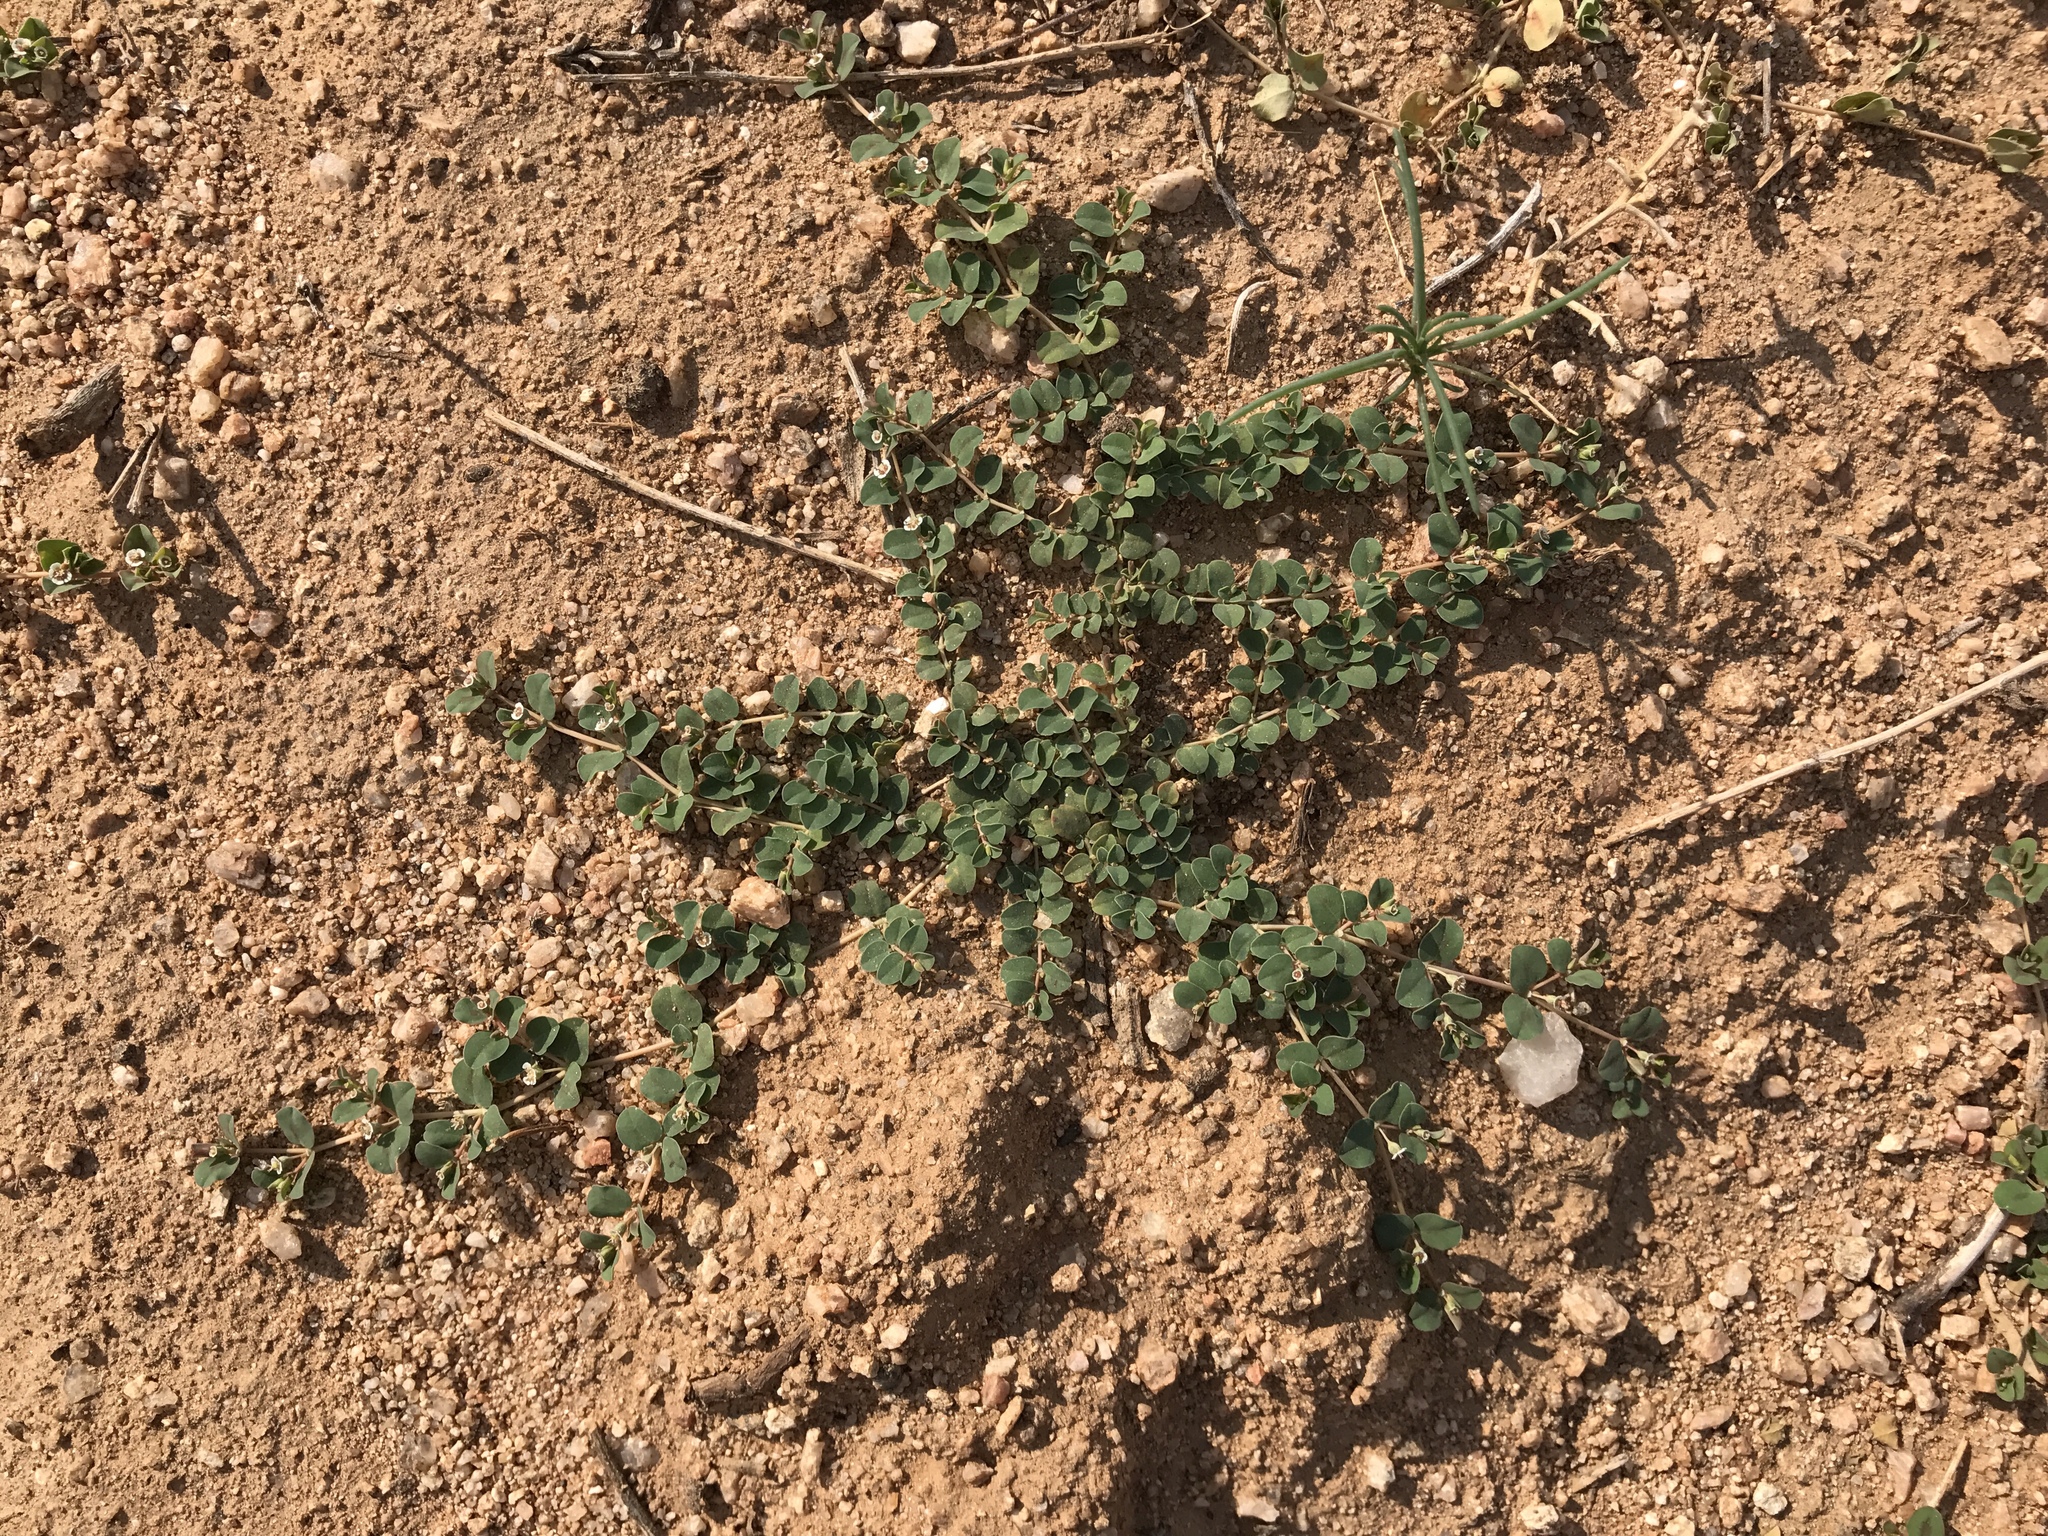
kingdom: Plantae
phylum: Tracheophyta
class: Magnoliopsida
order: Malpighiales
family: Euphorbiaceae
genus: Euphorbia
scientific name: Euphorbia albomarginata
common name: Whitemargin sandmat
